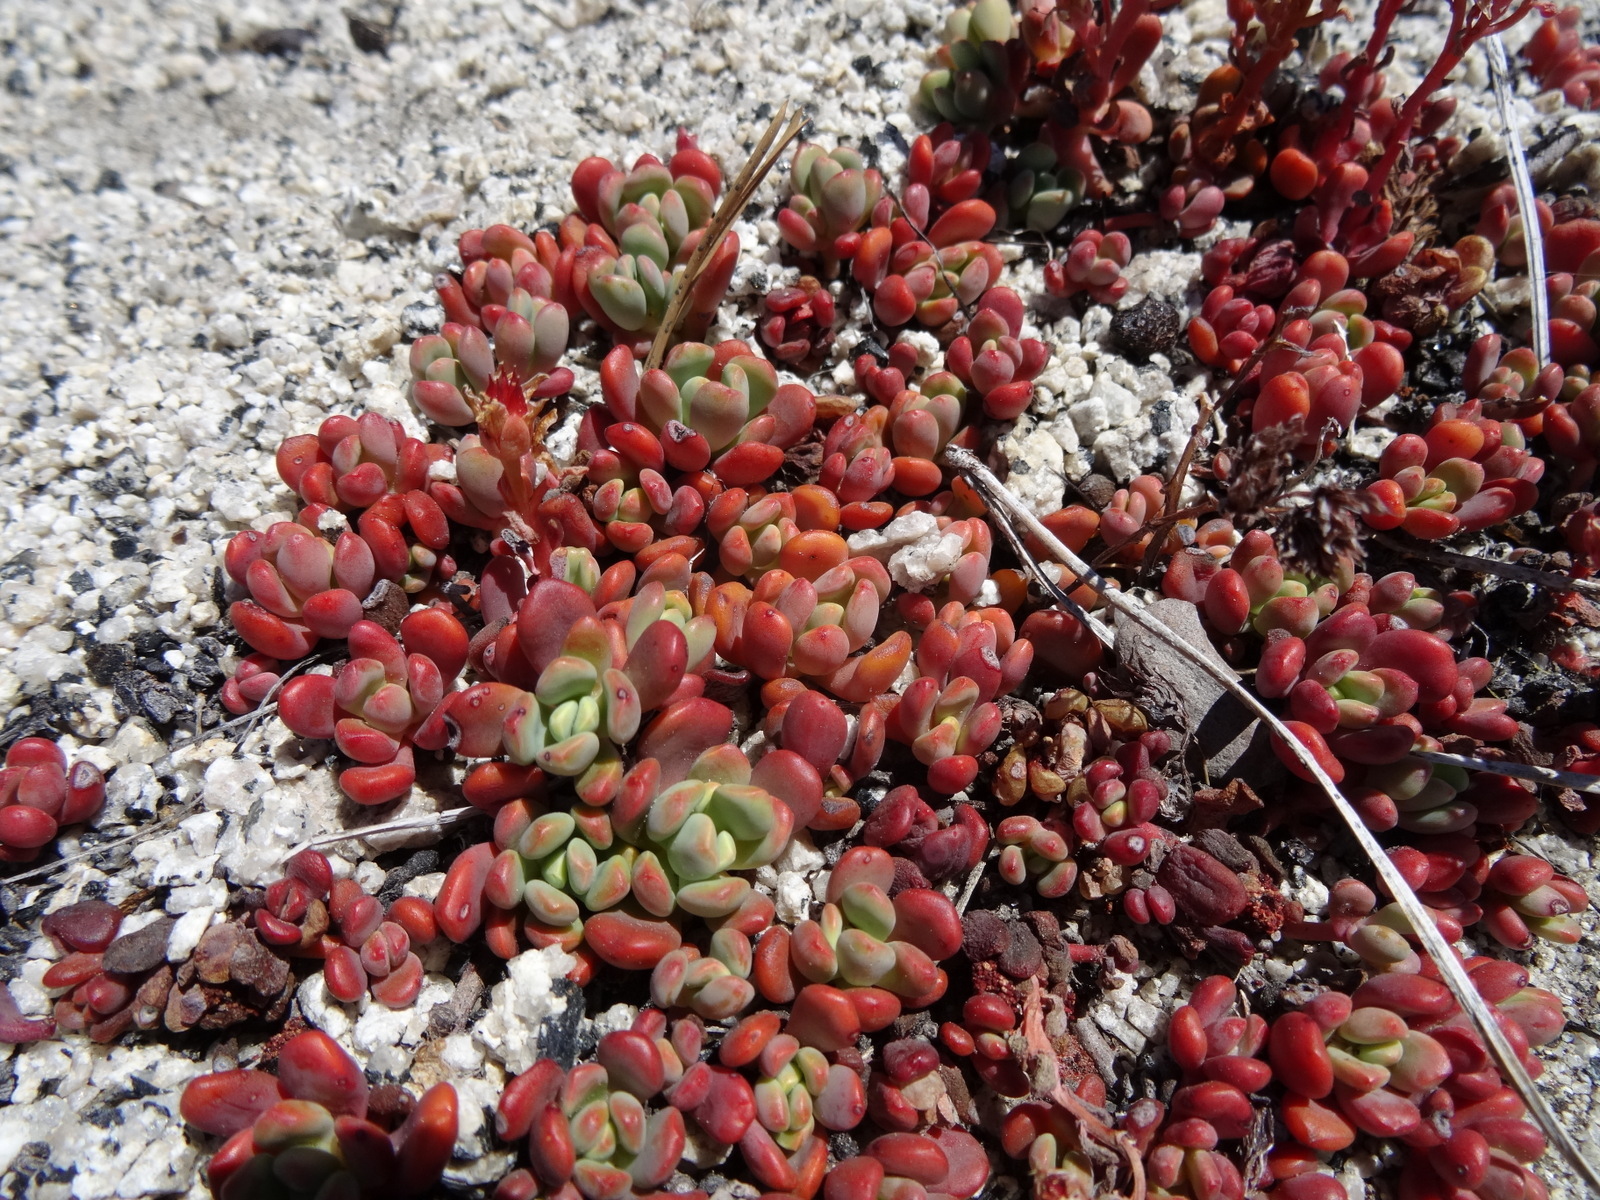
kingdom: Plantae
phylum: Tracheophyta
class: Magnoliopsida
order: Saxifragales
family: Crassulaceae
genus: Sedum
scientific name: Sedum obtusatum
